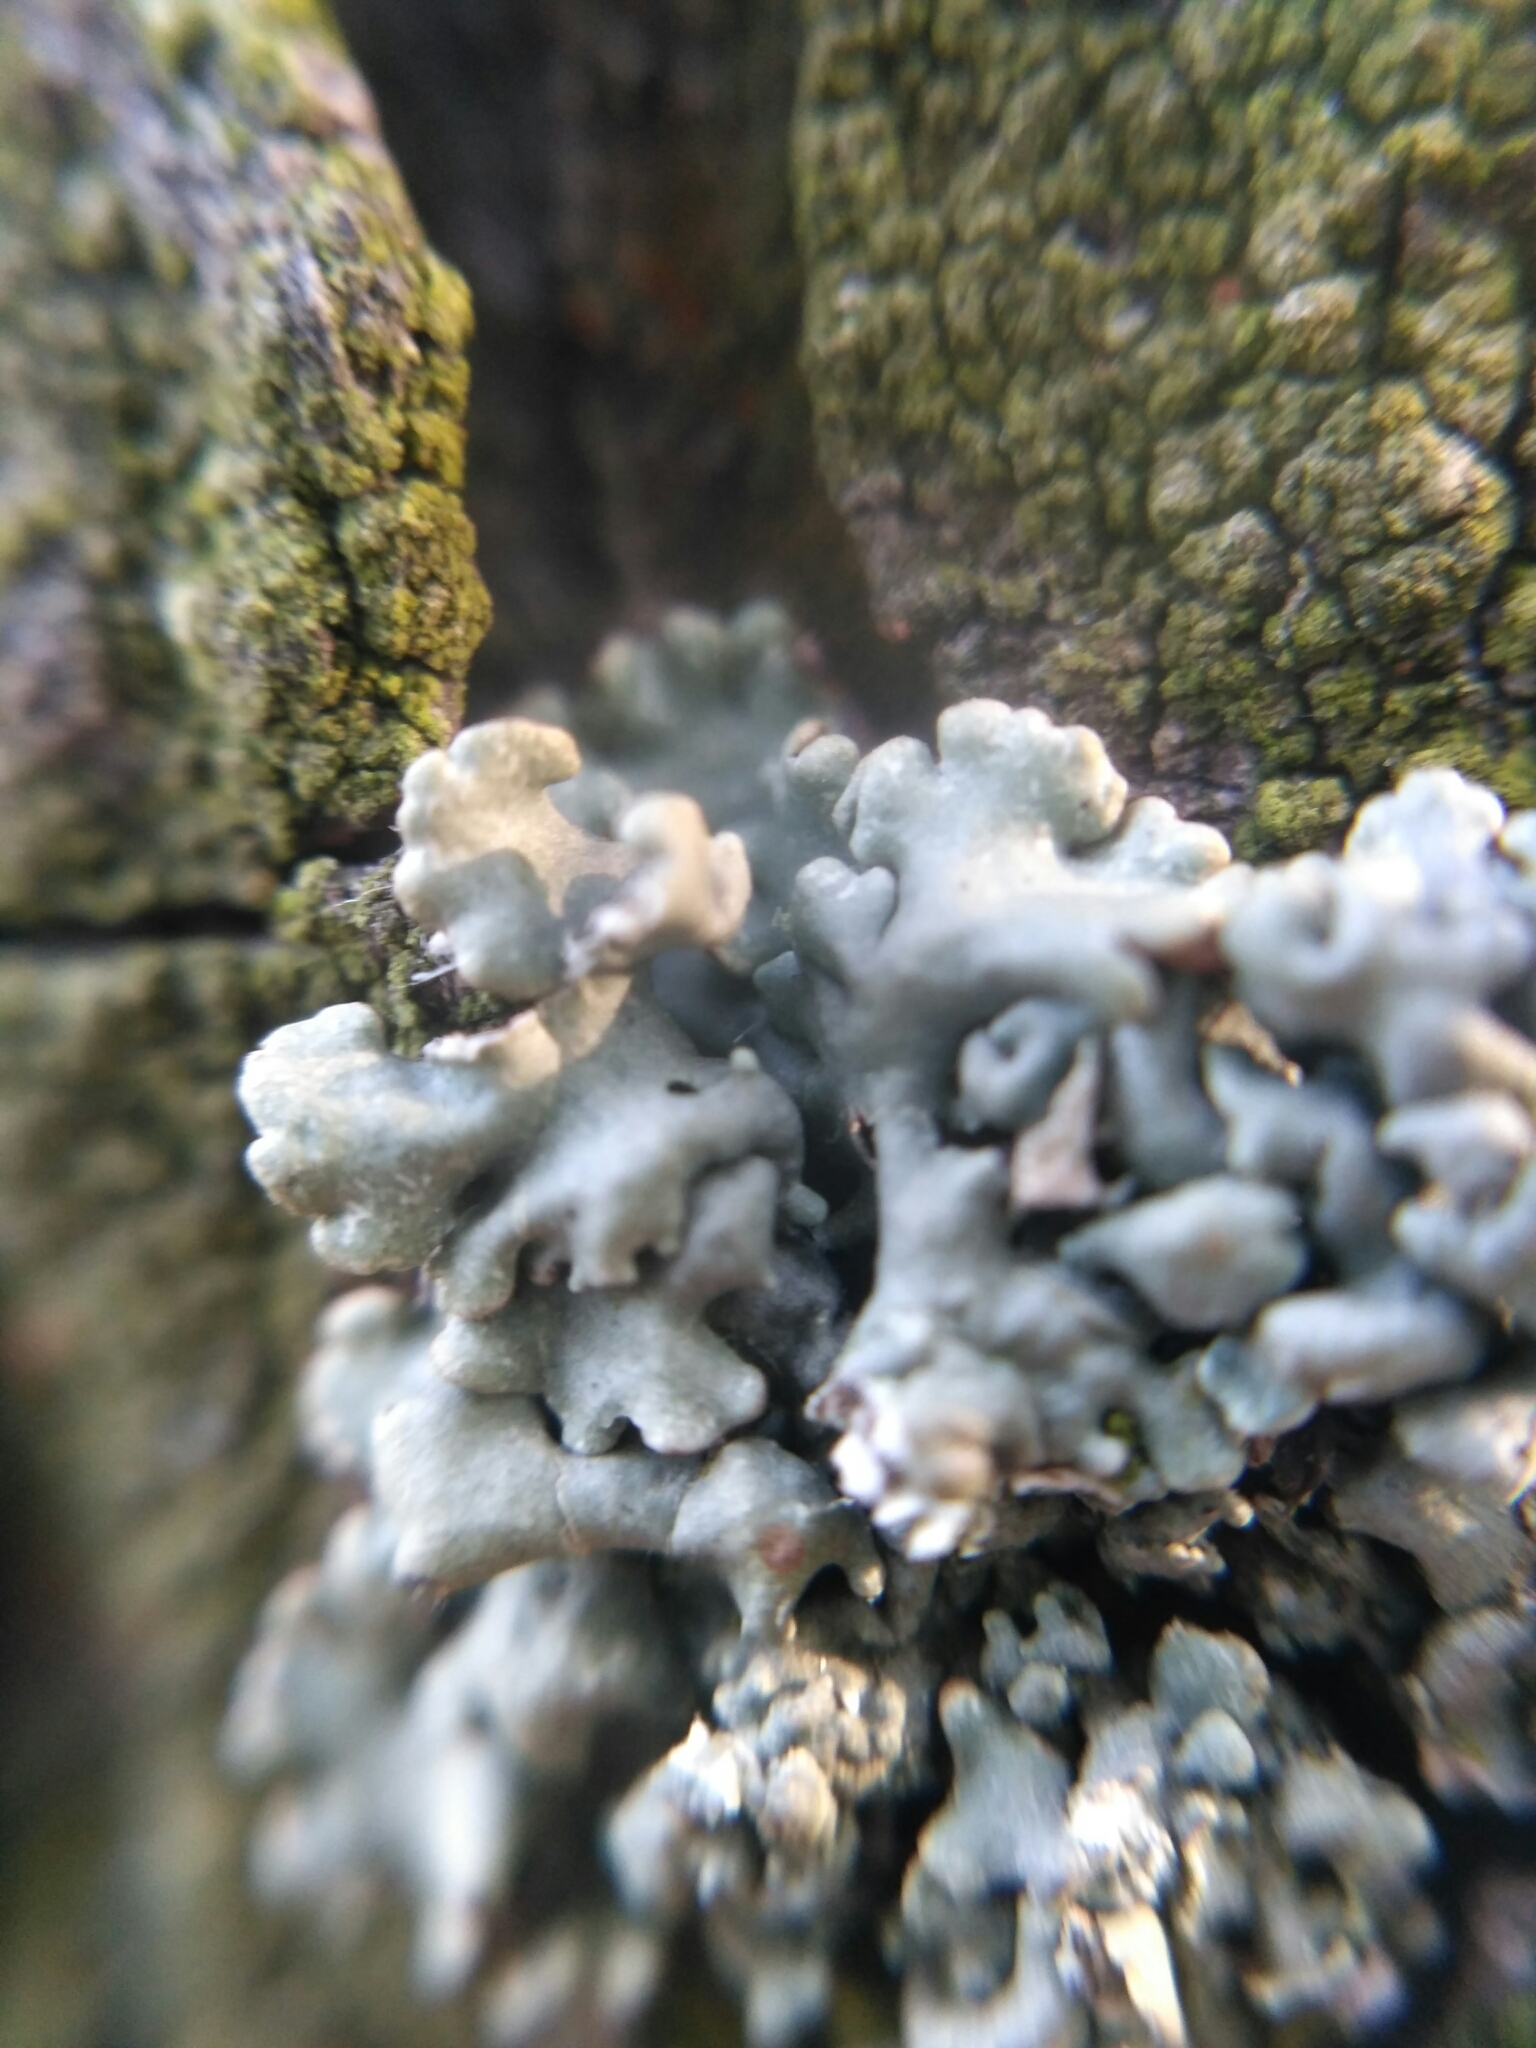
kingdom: Fungi
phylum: Ascomycota
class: Lecanoromycetes
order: Lecanorales
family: Parmeliaceae
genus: Hypogymnia
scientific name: Hypogymnia physodes
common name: Dark crottle
